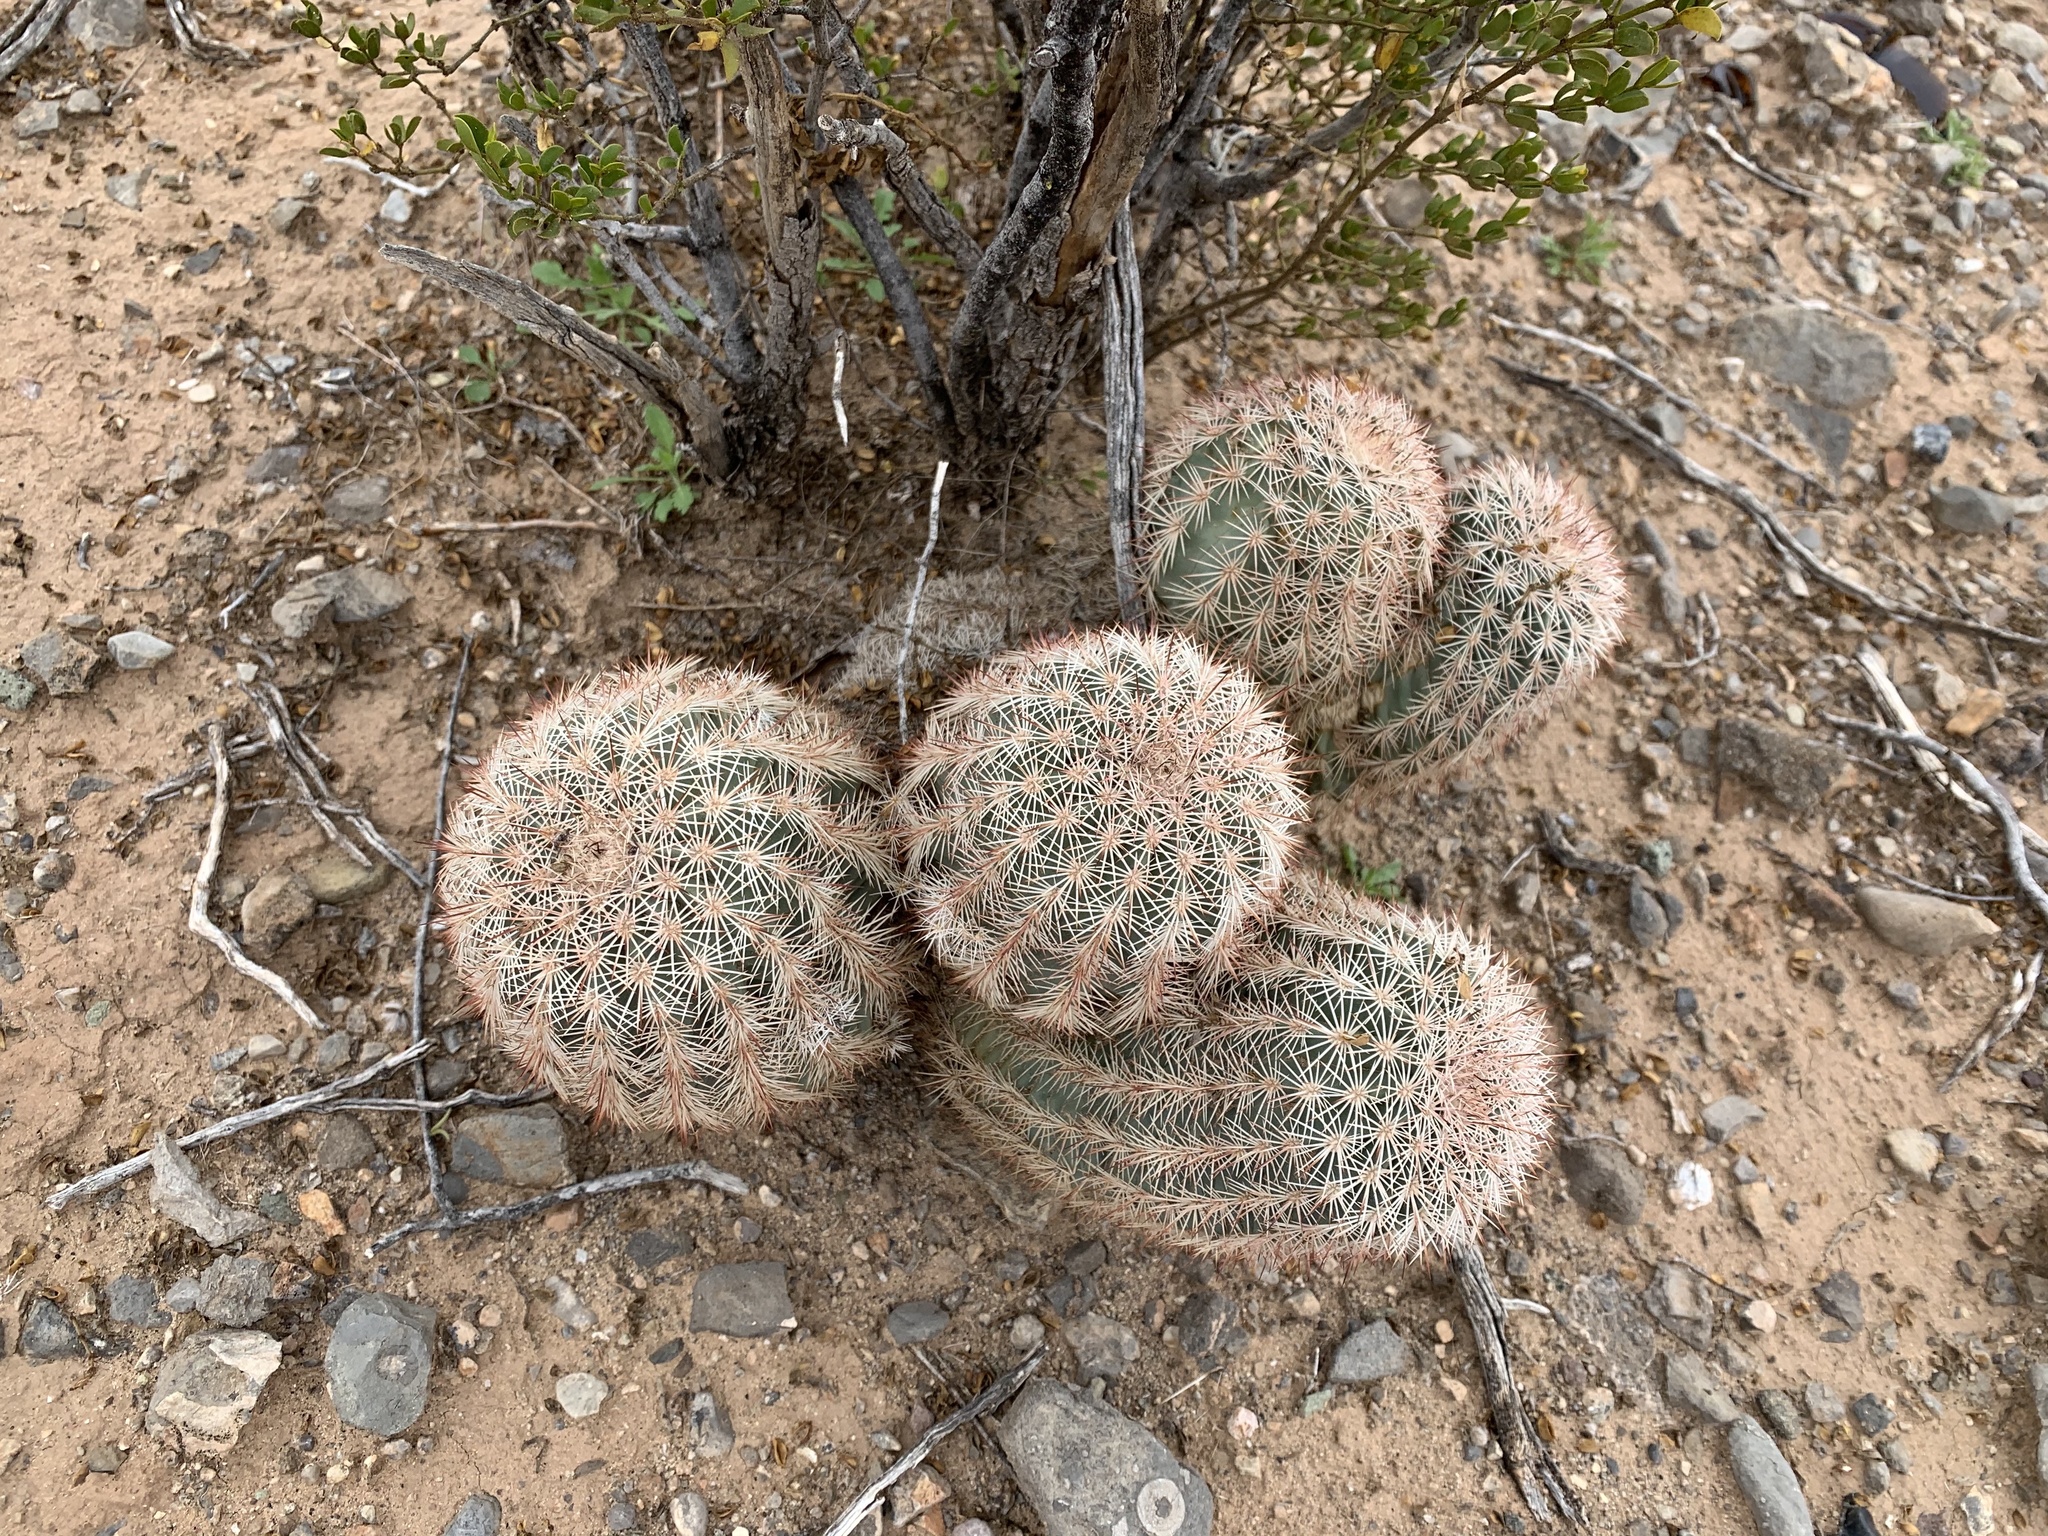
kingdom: Plantae
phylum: Tracheophyta
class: Magnoliopsida
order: Caryophyllales
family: Cactaceae
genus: Echinocereus
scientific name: Echinocereus dasyacanthus
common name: Spiny hedgehog cactus
